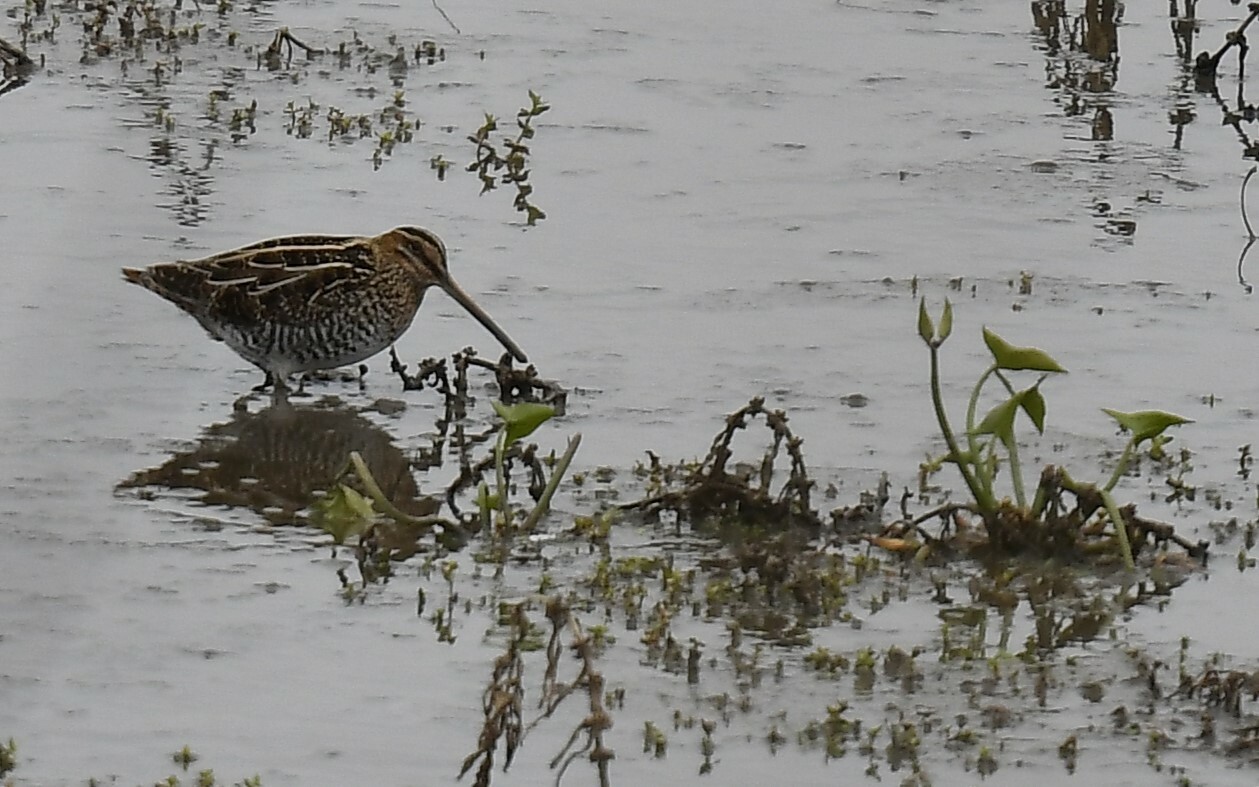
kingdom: Animalia
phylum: Chordata
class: Aves
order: Charadriiformes
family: Scolopacidae
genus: Gallinago
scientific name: Gallinago delicata
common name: Wilson's snipe
